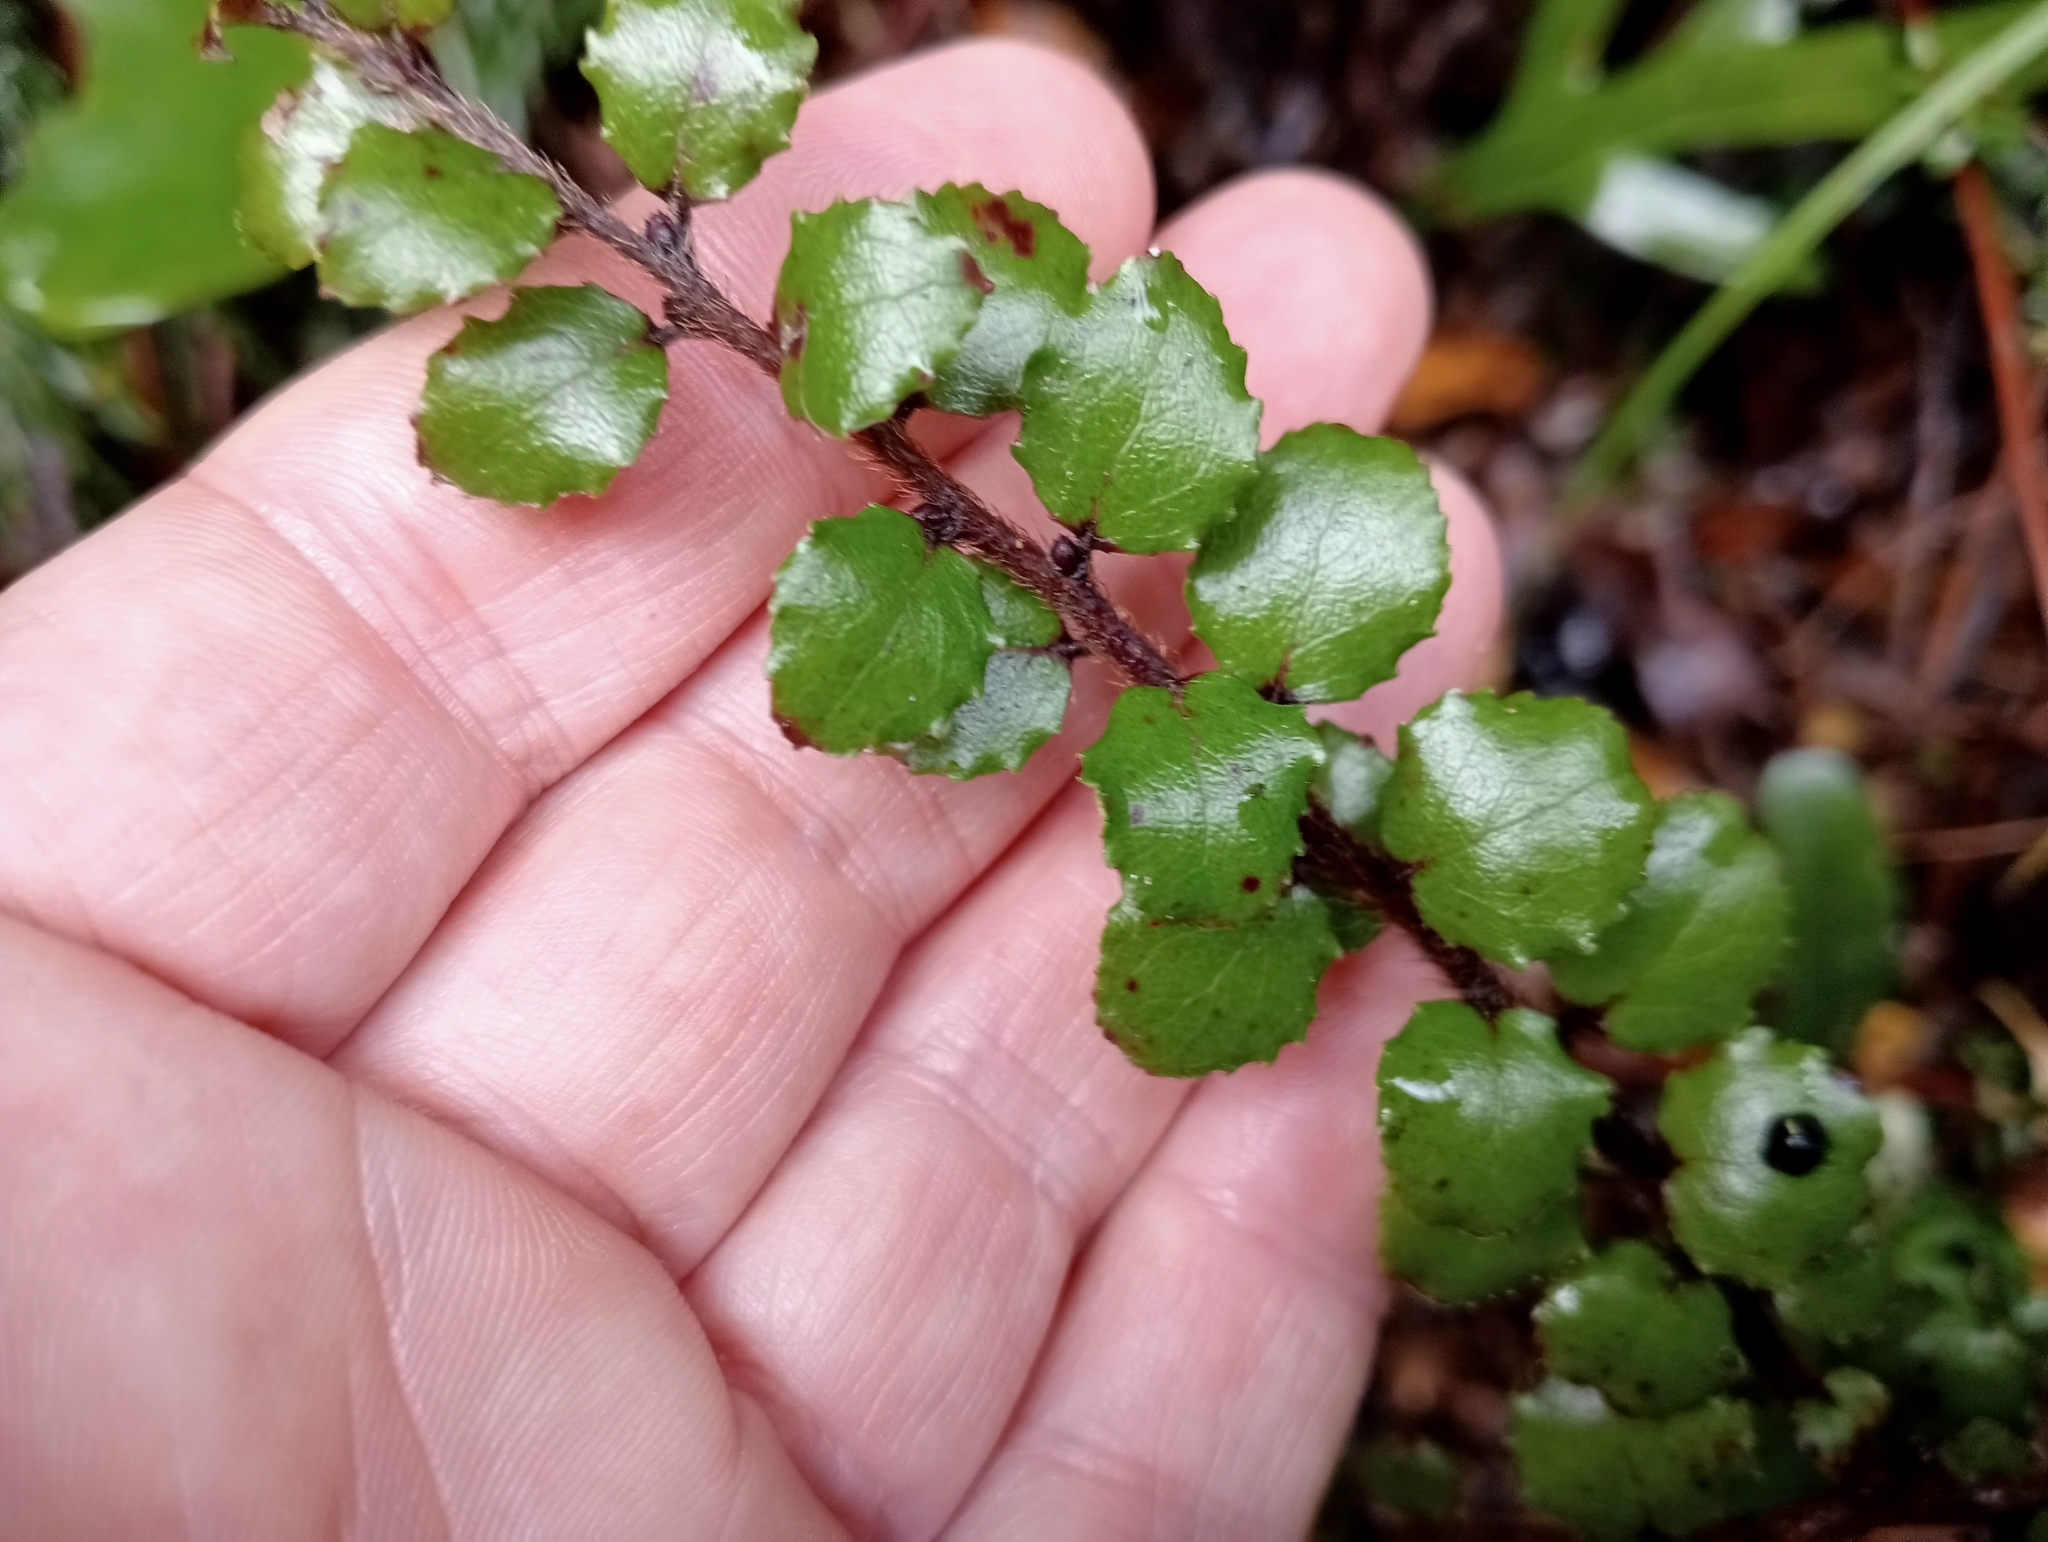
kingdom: Plantae
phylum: Tracheophyta
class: Magnoliopsida
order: Ericales
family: Ericaceae
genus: Gaultheria
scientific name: Gaultheria antipoda
